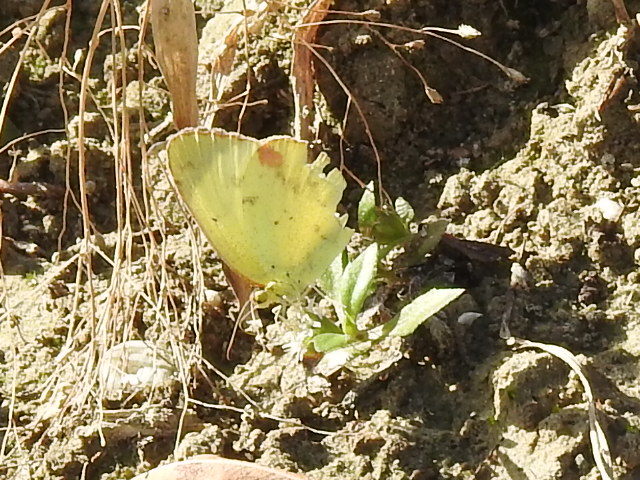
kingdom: Animalia
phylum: Arthropoda
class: Insecta
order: Lepidoptera
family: Pieridae
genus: Pyrisitia
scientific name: Pyrisitia lisa
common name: Little yellow
